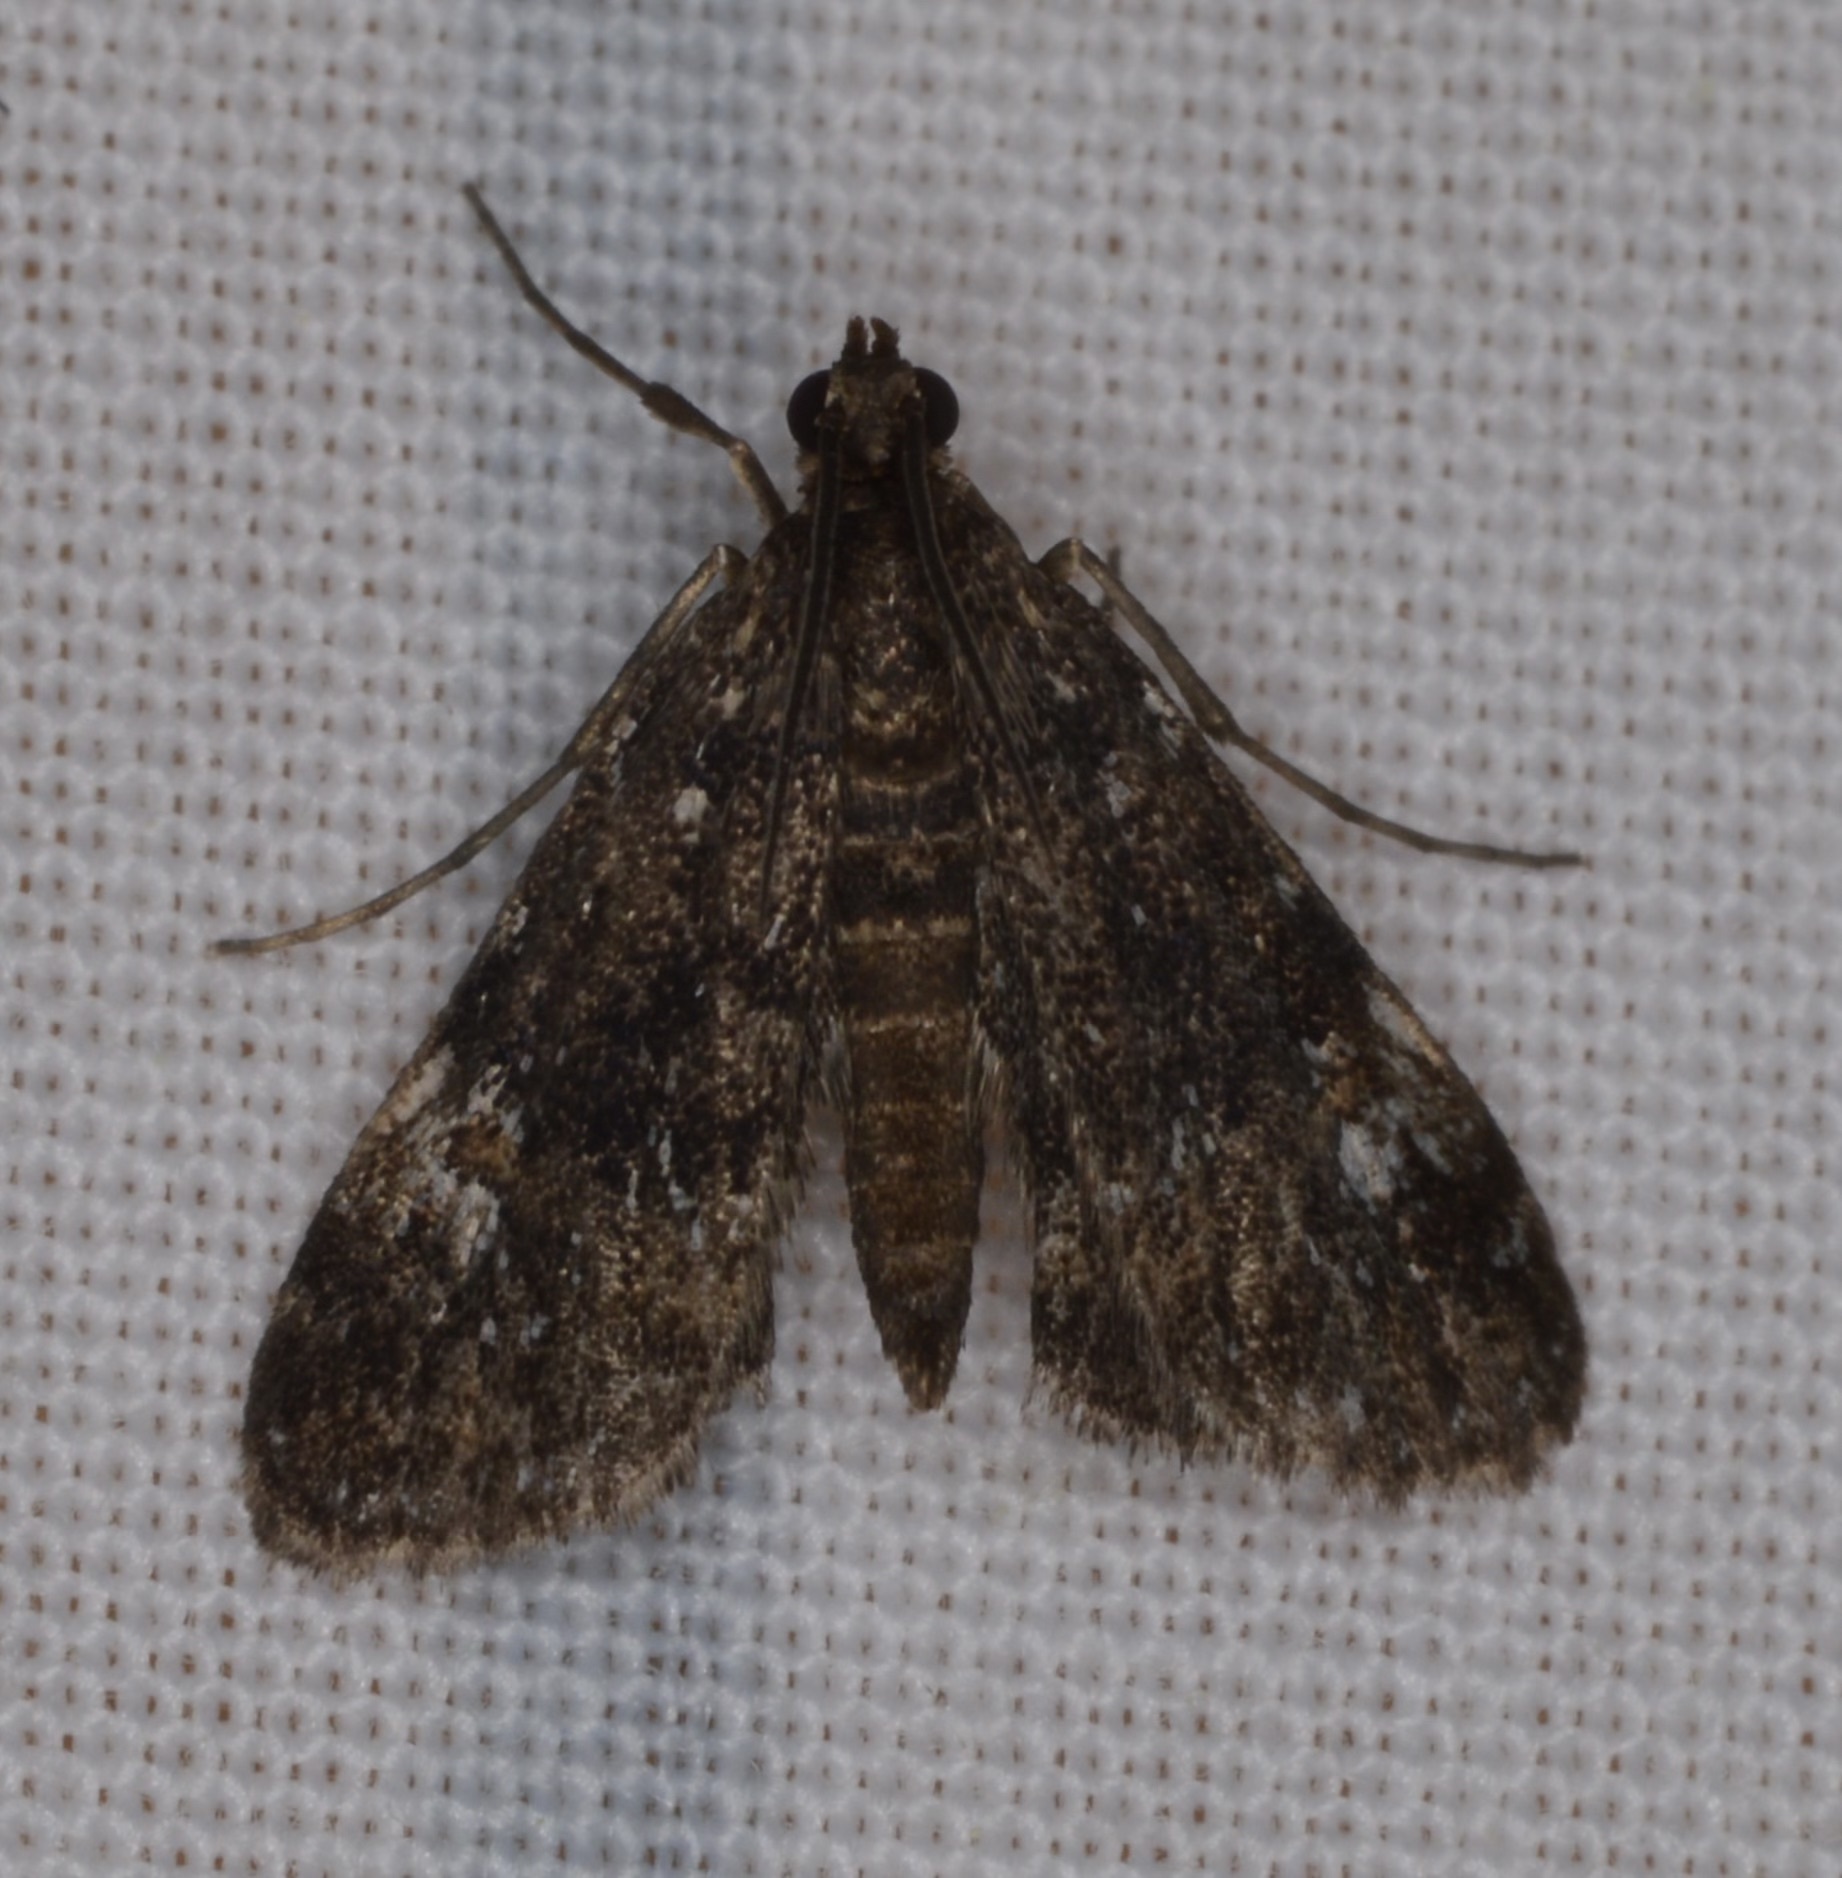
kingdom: Animalia
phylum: Arthropoda
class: Insecta
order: Lepidoptera
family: Crambidae
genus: Elophila
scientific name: Elophila obliteralis
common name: Waterlily leafcutter moth
